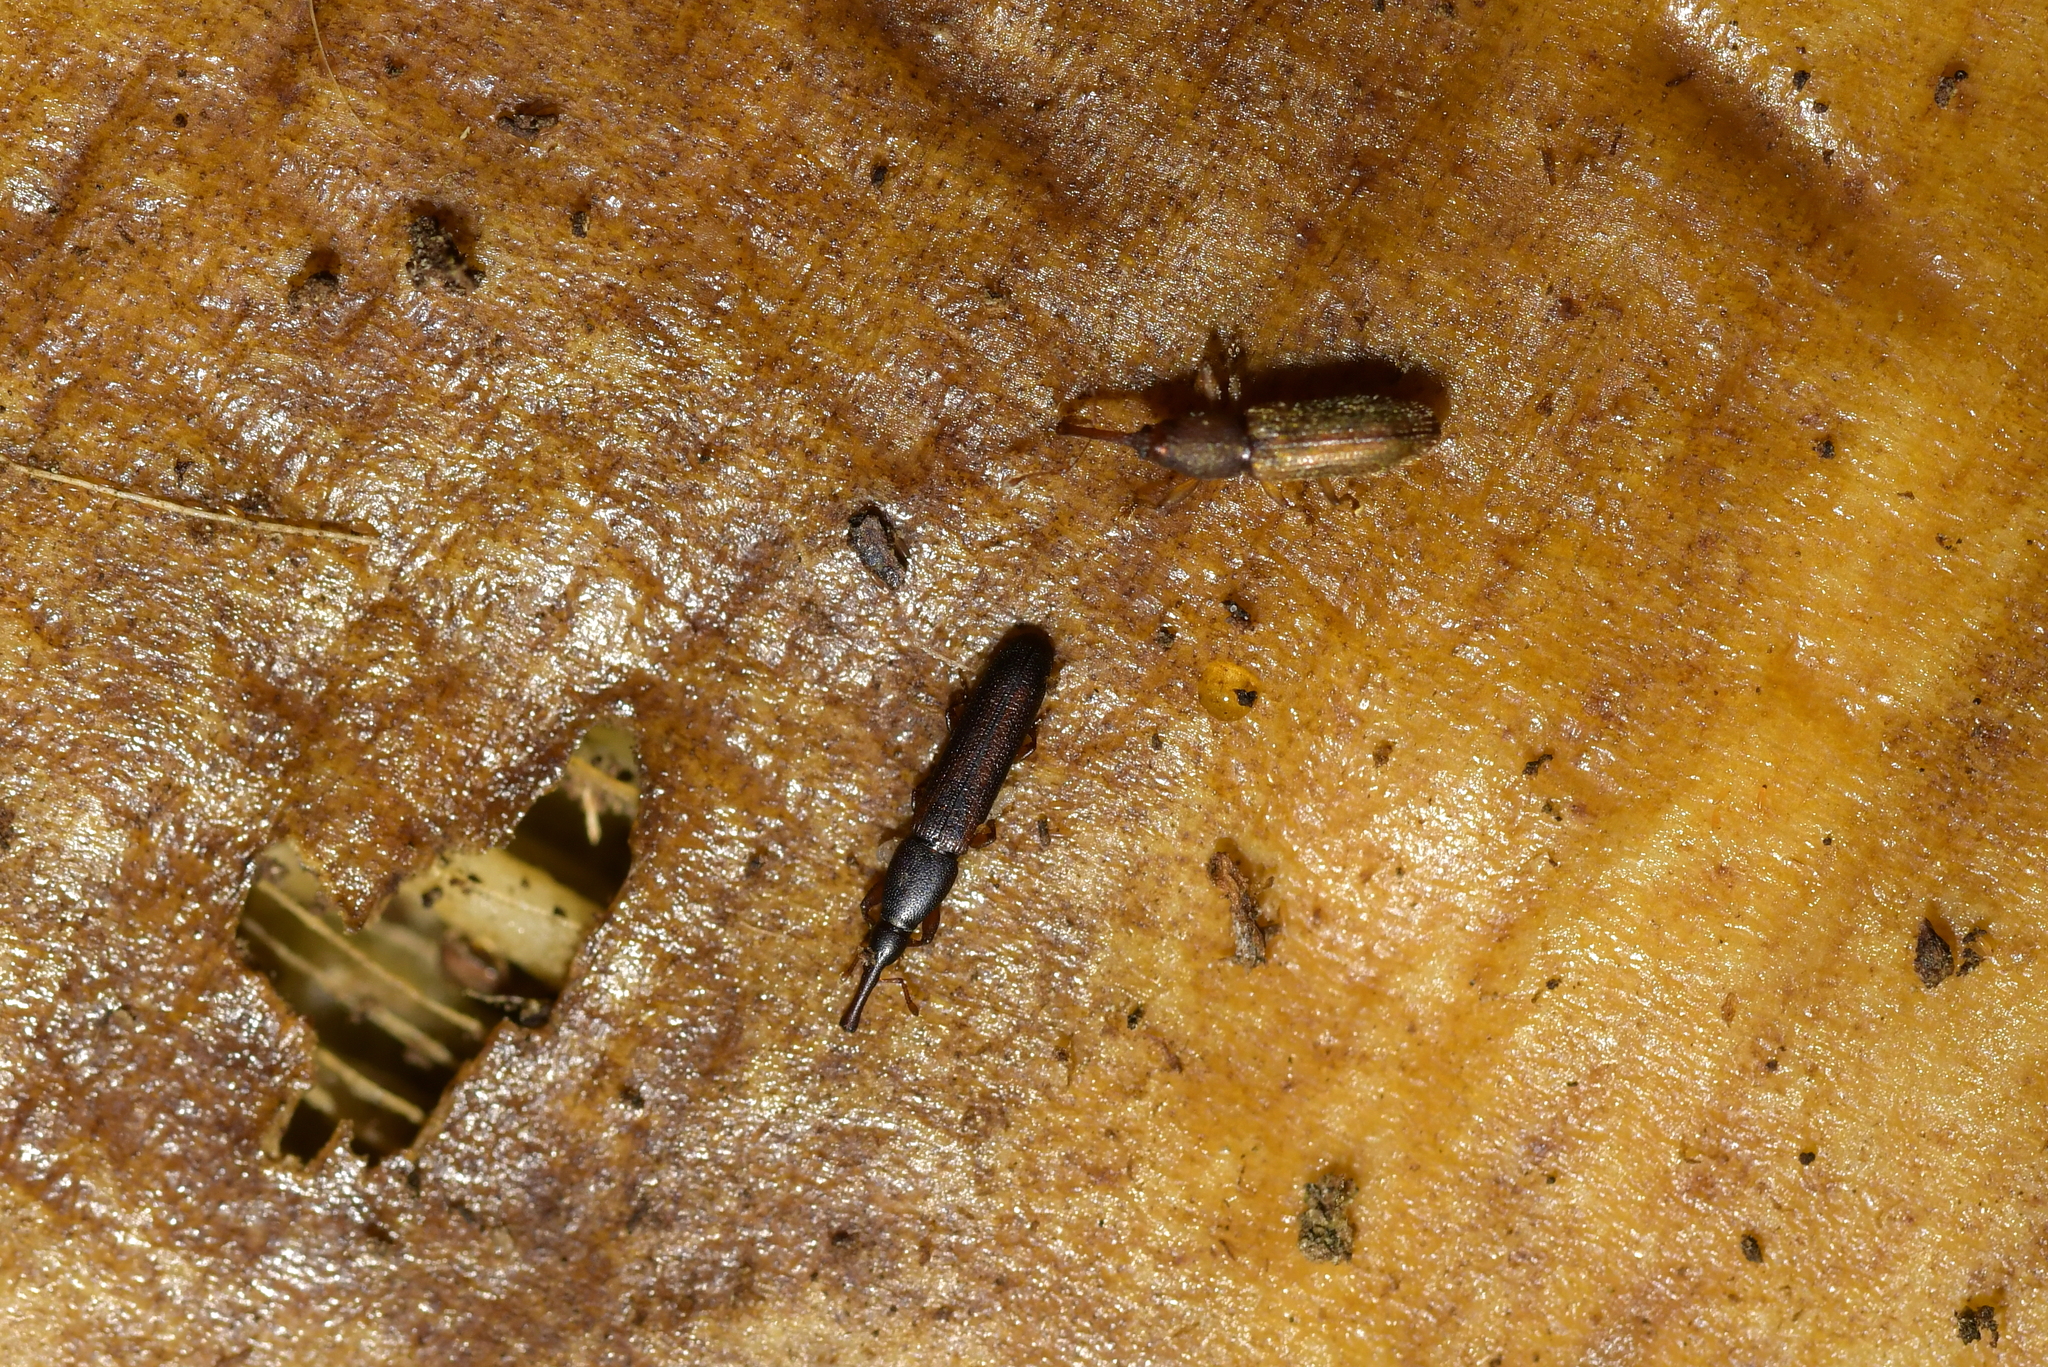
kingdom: Animalia
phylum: Arthropoda
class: Insecta
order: Coleoptera
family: Curculionidae
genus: Stenotrupis
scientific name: Stenotrupis wollastoniana
